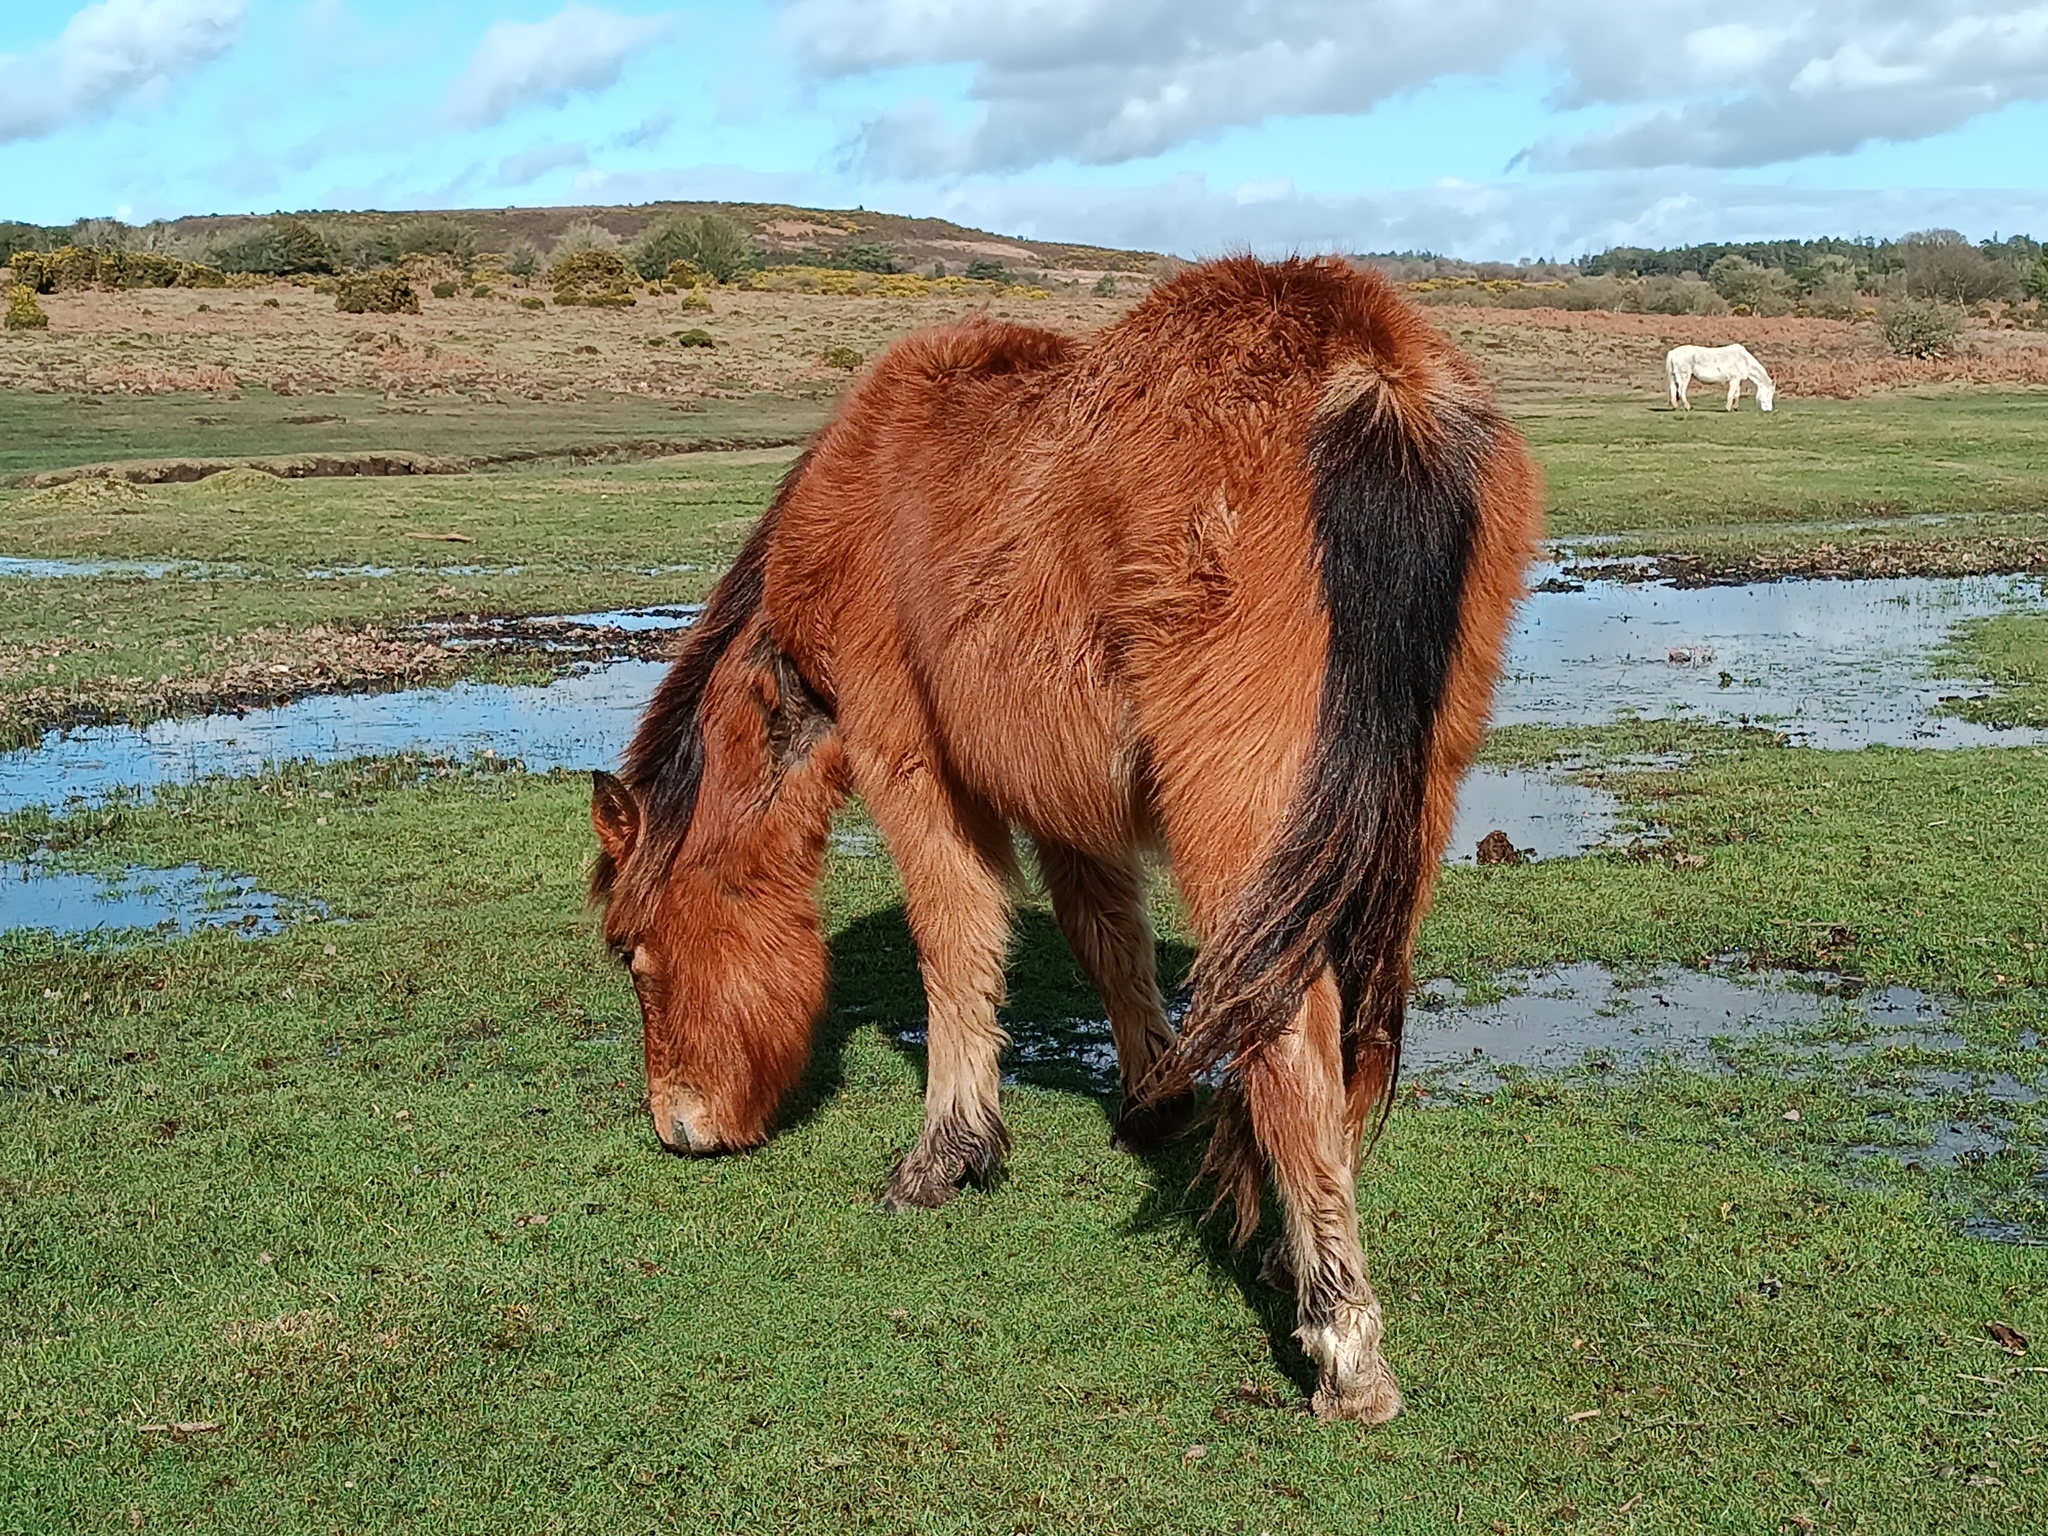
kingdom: Animalia
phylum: Chordata
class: Mammalia
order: Perissodactyla
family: Equidae
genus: Equus
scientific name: Equus caballus
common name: Horse
